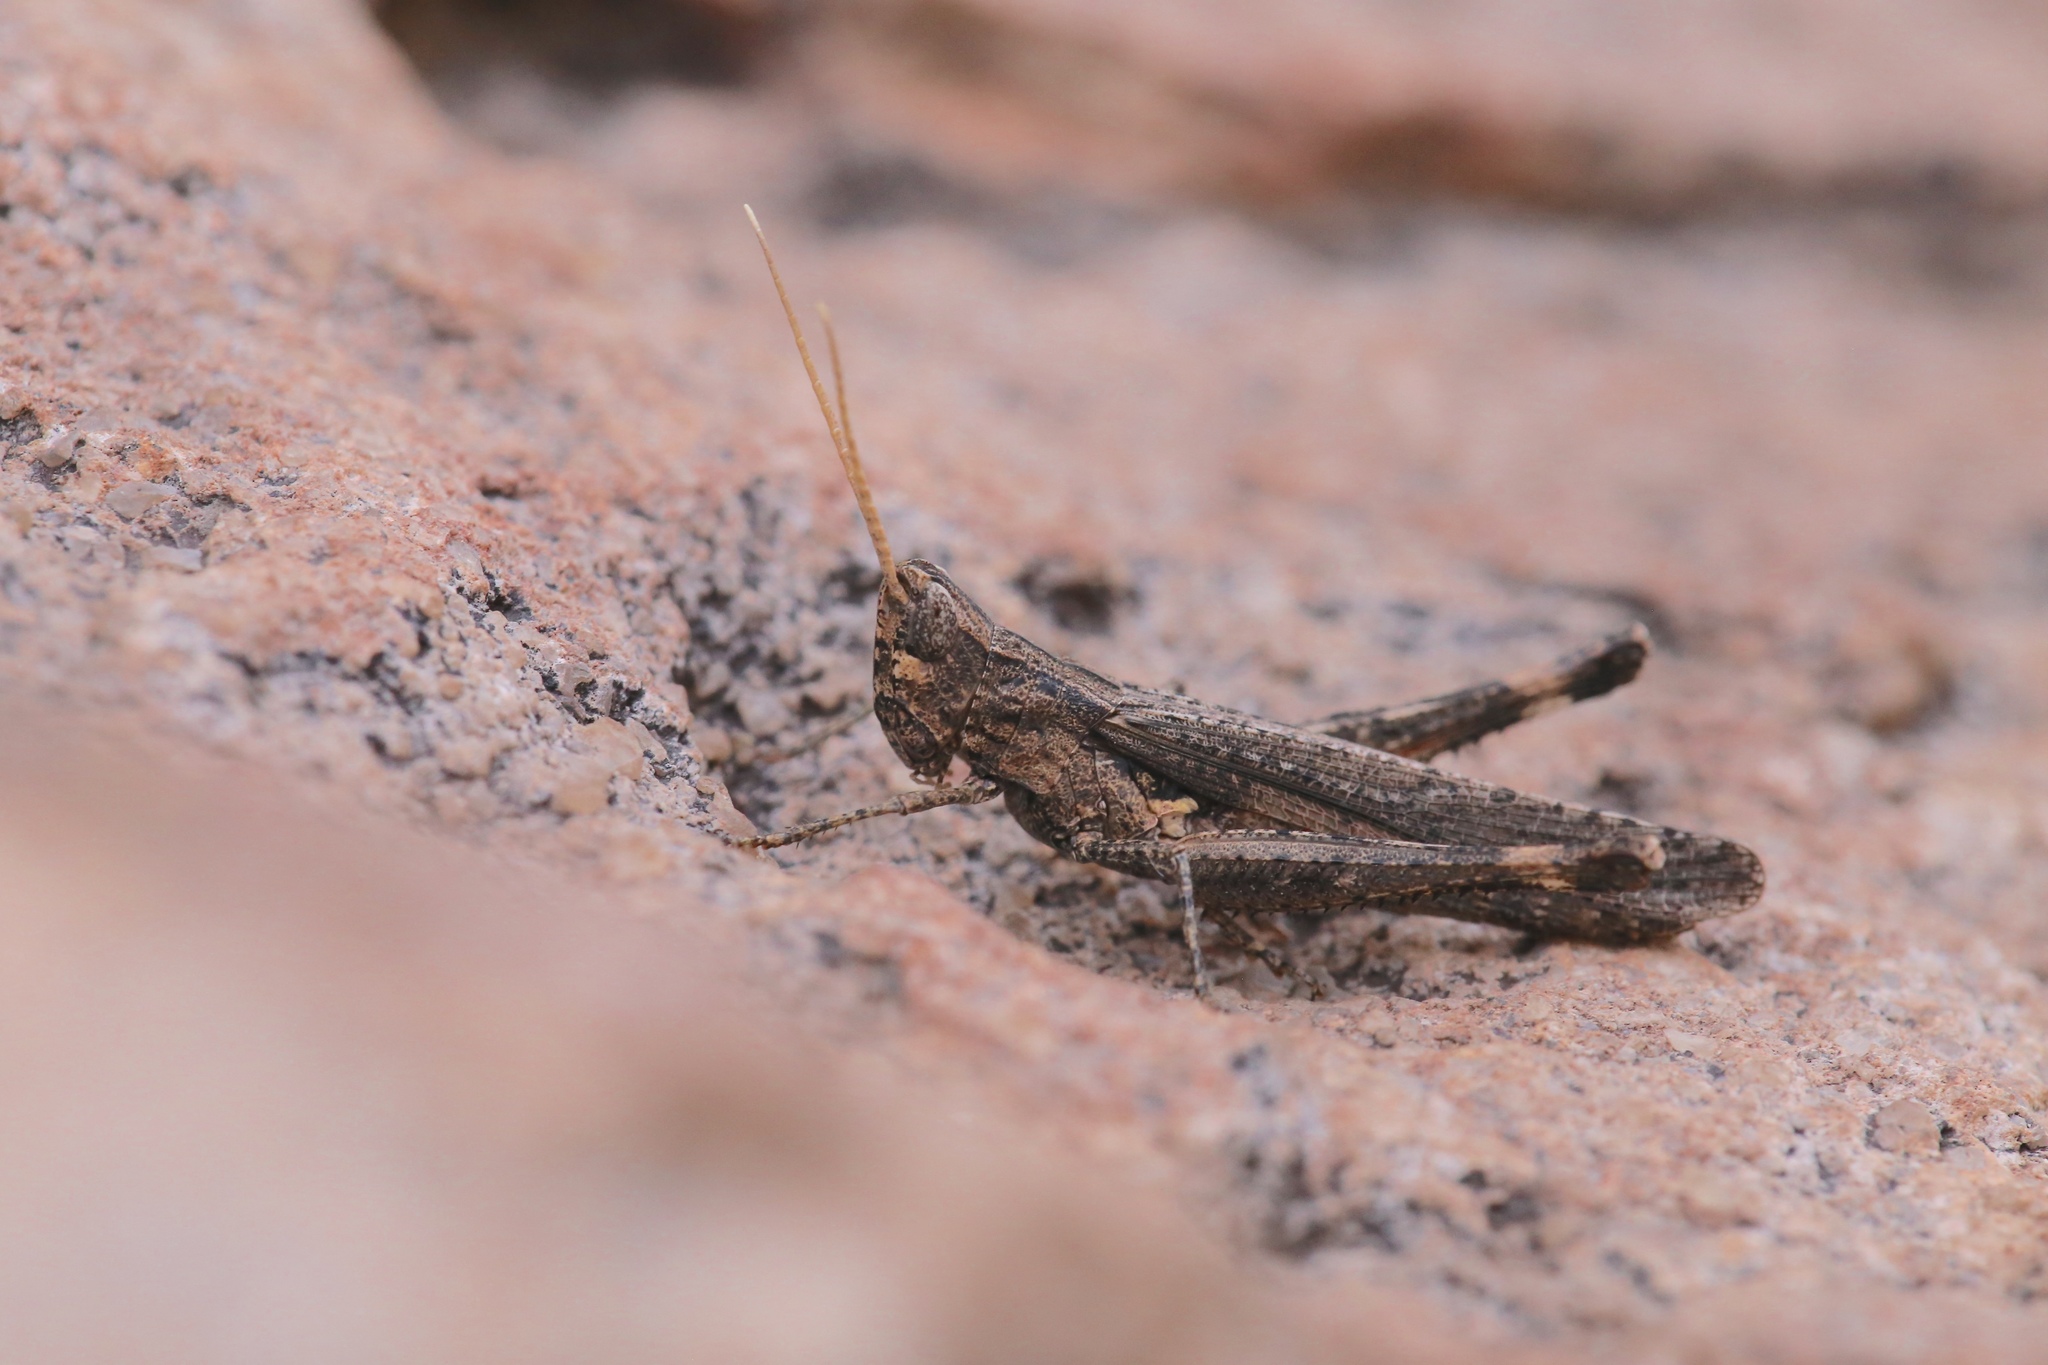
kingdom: Animalia
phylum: Arthropoda
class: Insecta
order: Orthoptera
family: Acrididae
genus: Acantherus
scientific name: Acantherus piperatus
